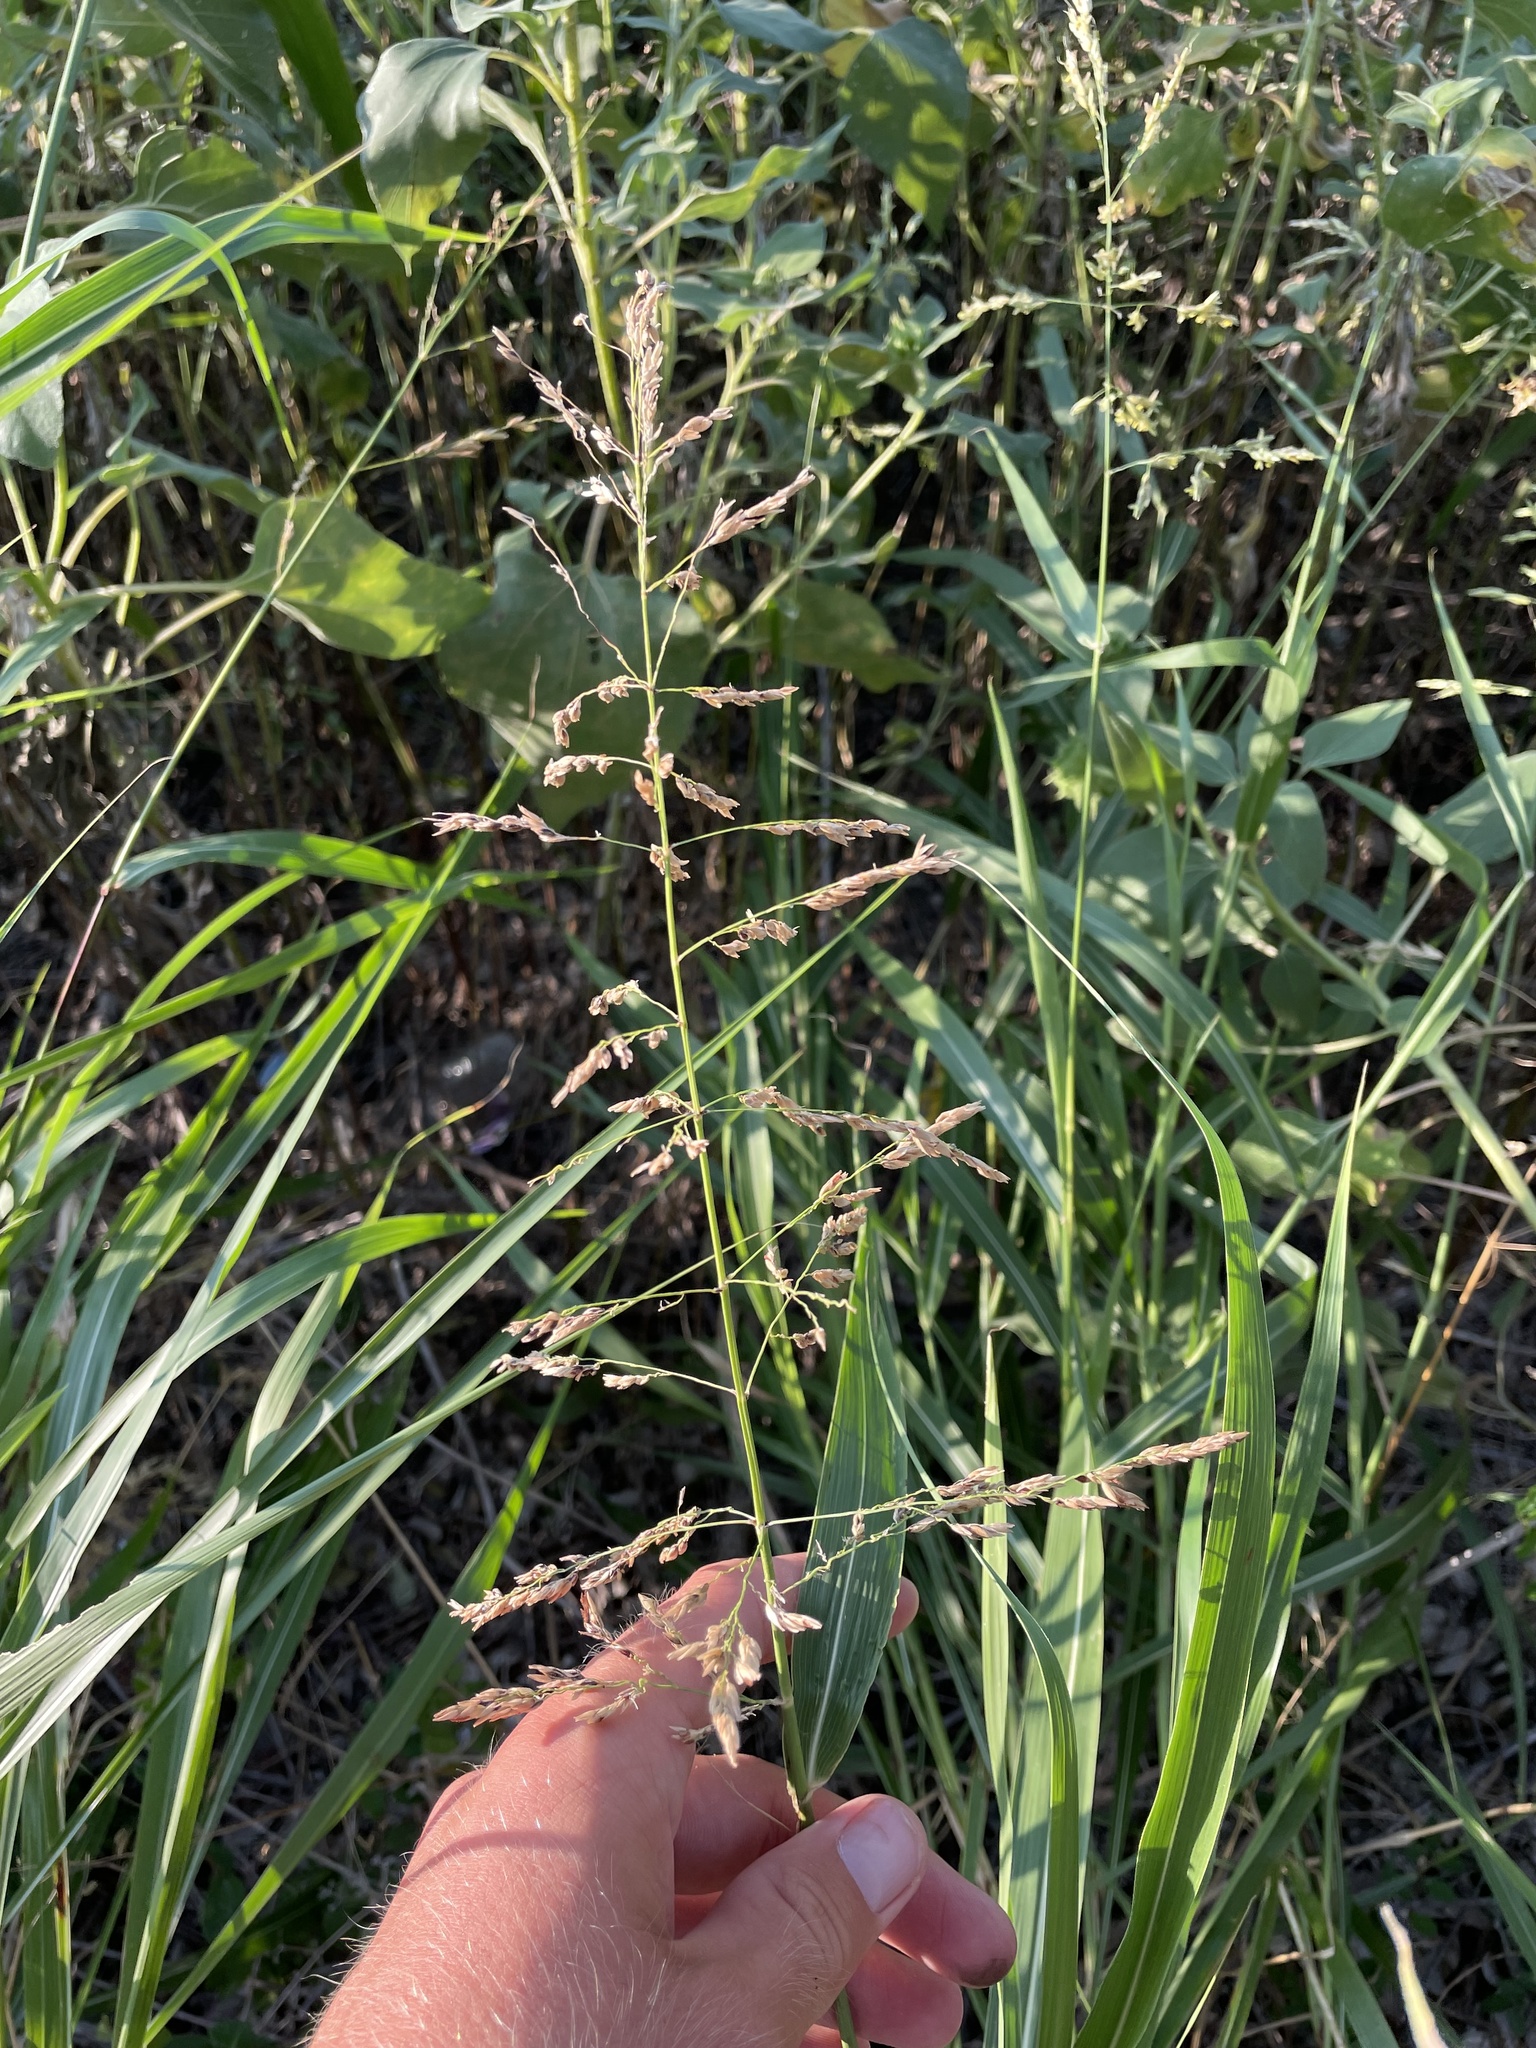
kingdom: Plantae
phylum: Tracheophyta
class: Liliopsida
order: Poales
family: Poaceae
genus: Sorghum
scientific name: Sorghum halepense
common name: Johnson-grass
